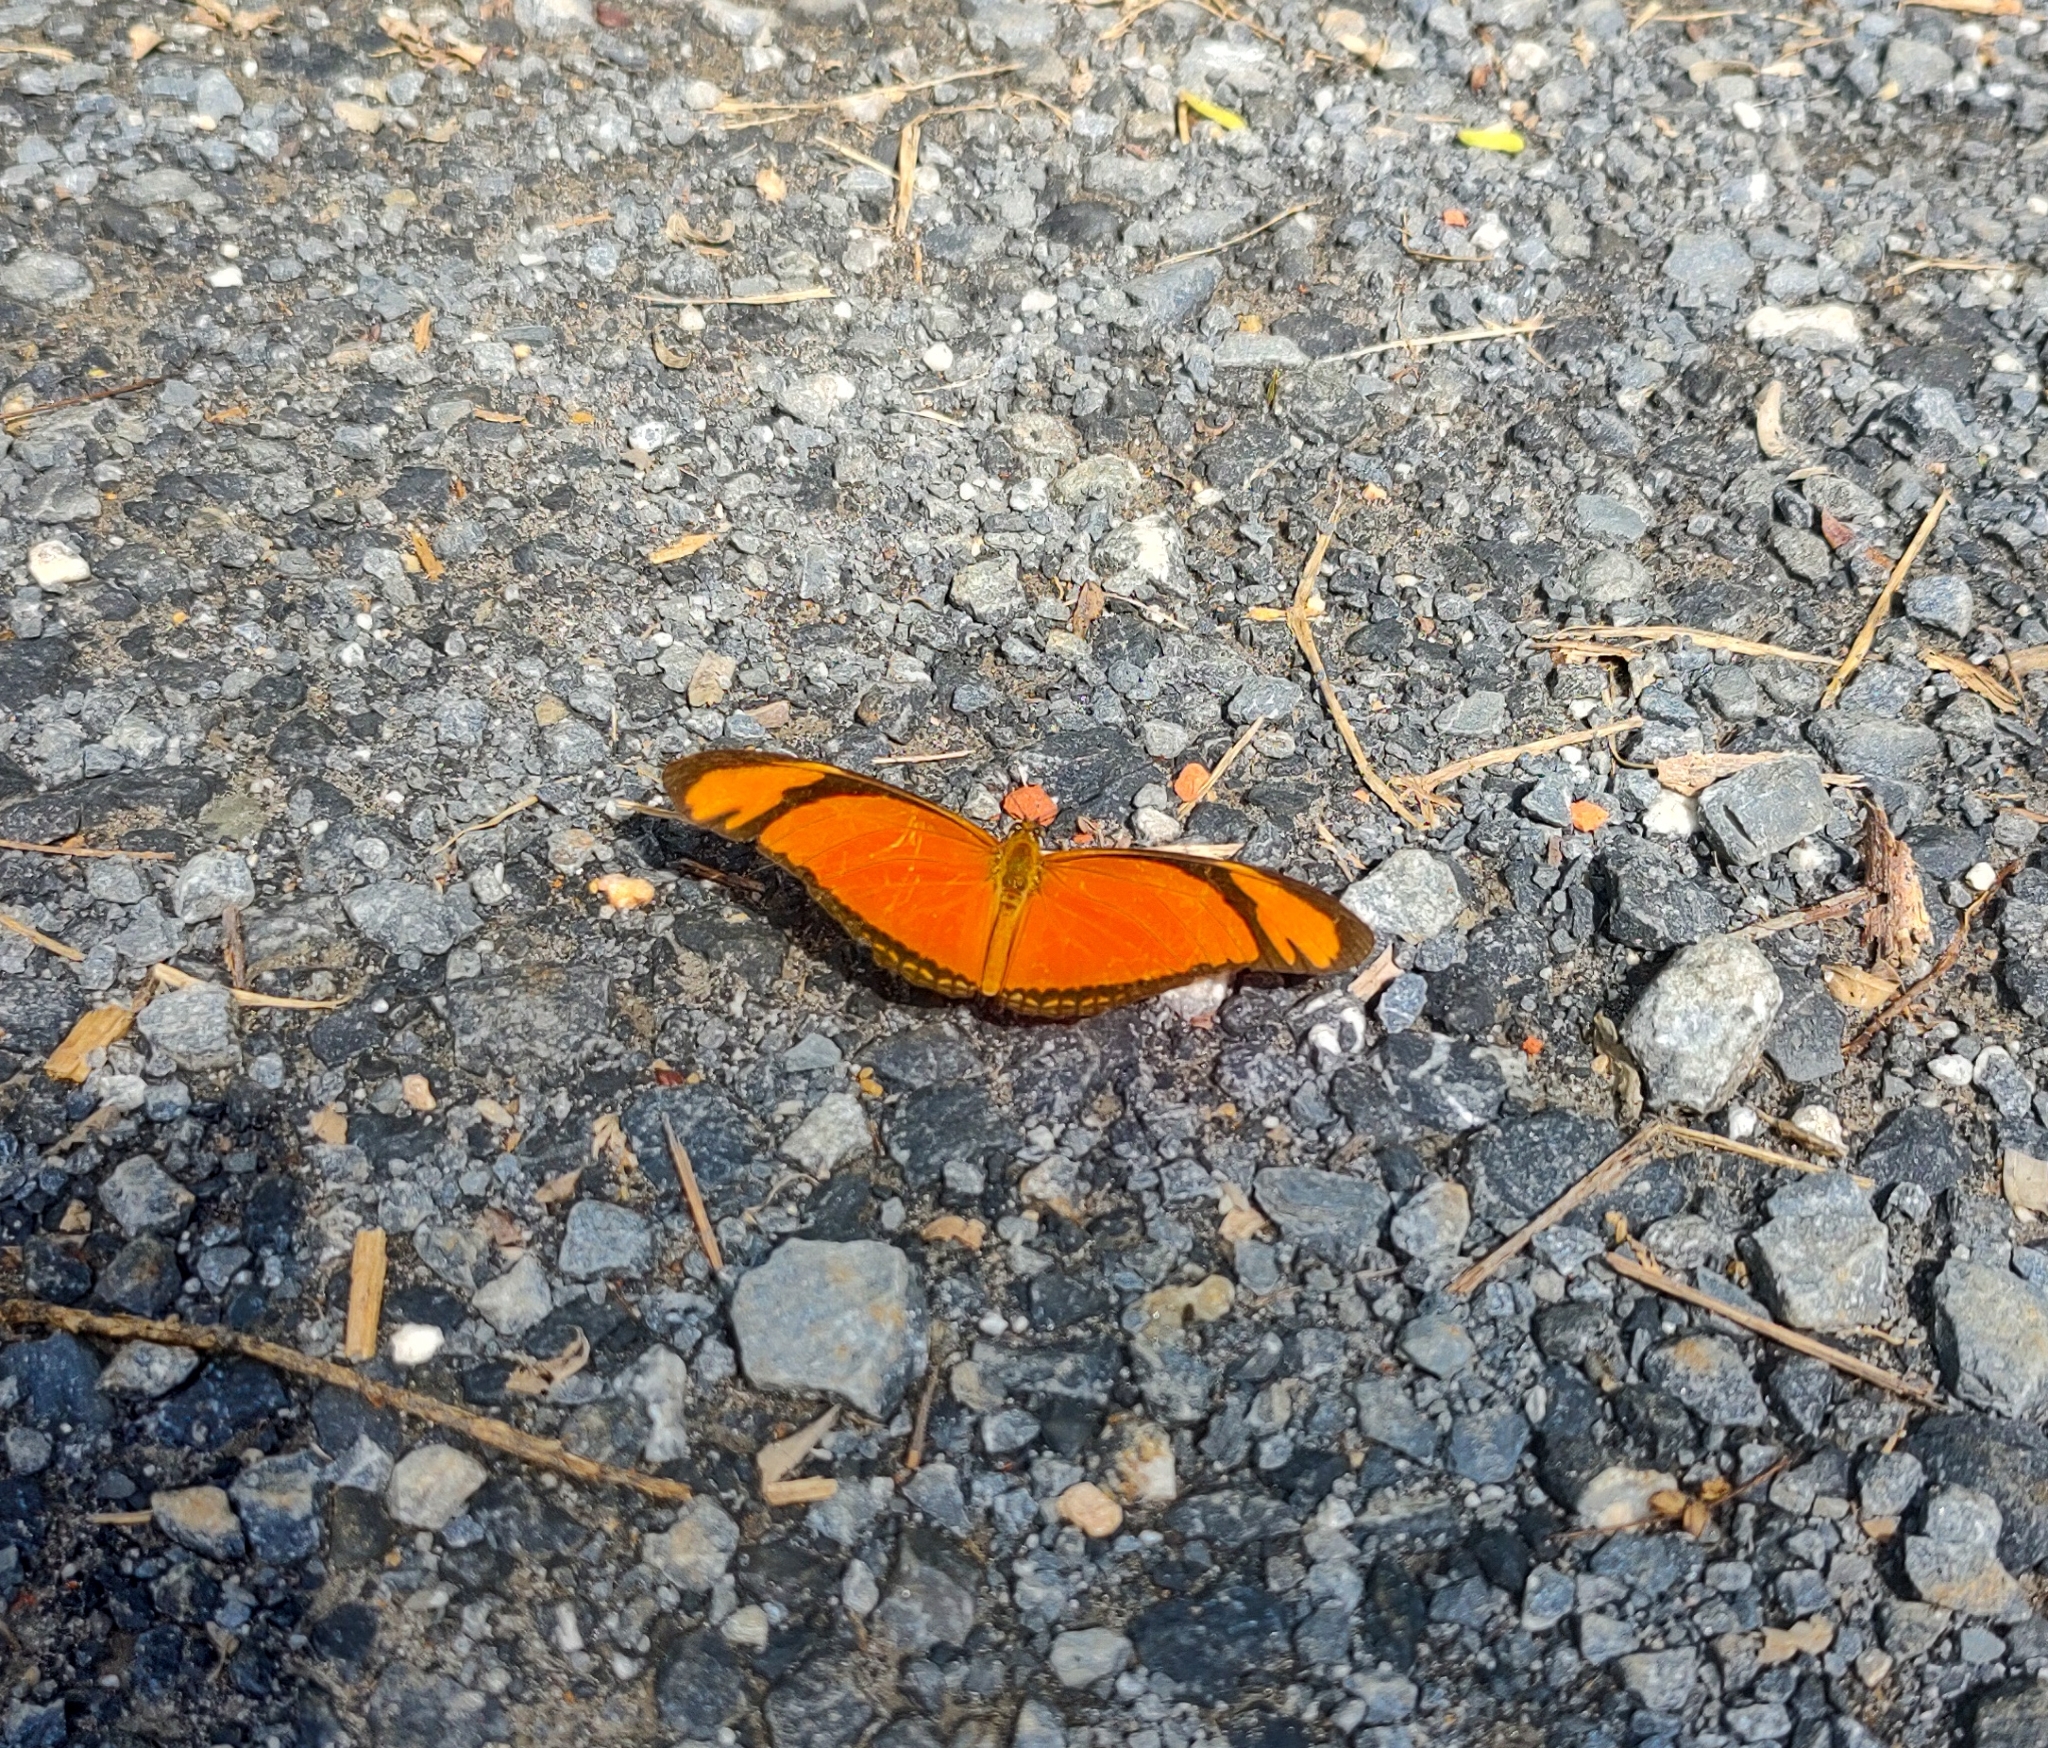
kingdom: Animalia
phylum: Arthropoda
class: Insecta
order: Lepidoptera
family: Nymphalidae
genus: Dryas
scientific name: Dryas iulia
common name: Flambeau
